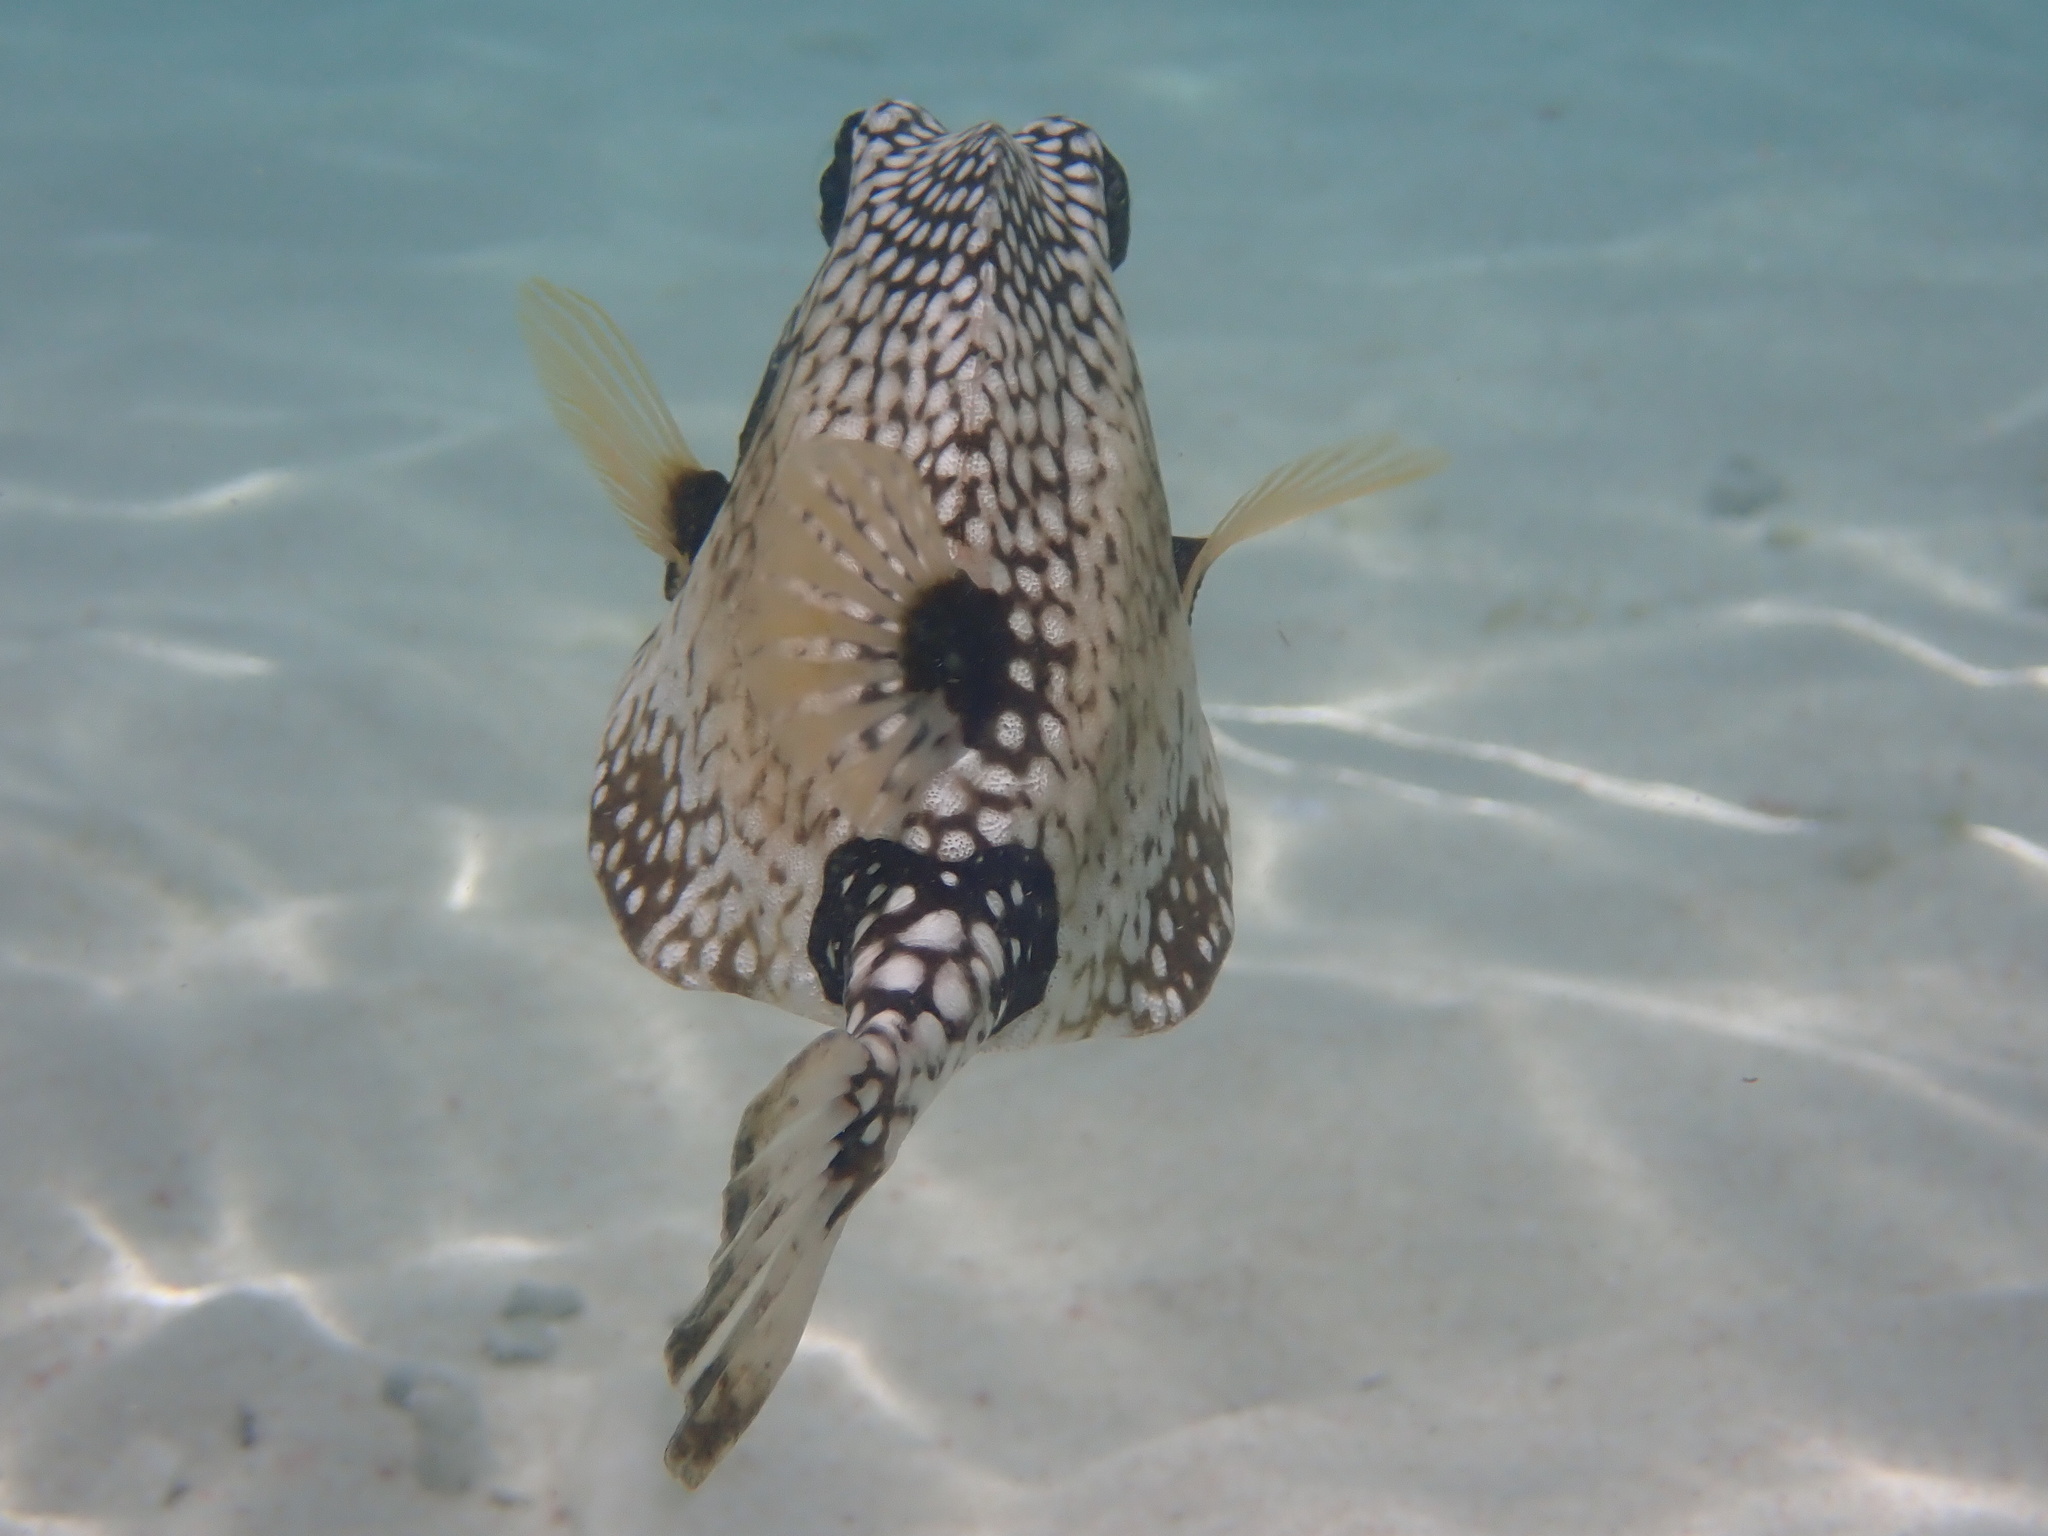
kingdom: Animalia
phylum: Chordata
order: Tetraodontiformes
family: Ostraciidae
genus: Lactophrys
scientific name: Lactophrys triqueter
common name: Smooth trunkfish
